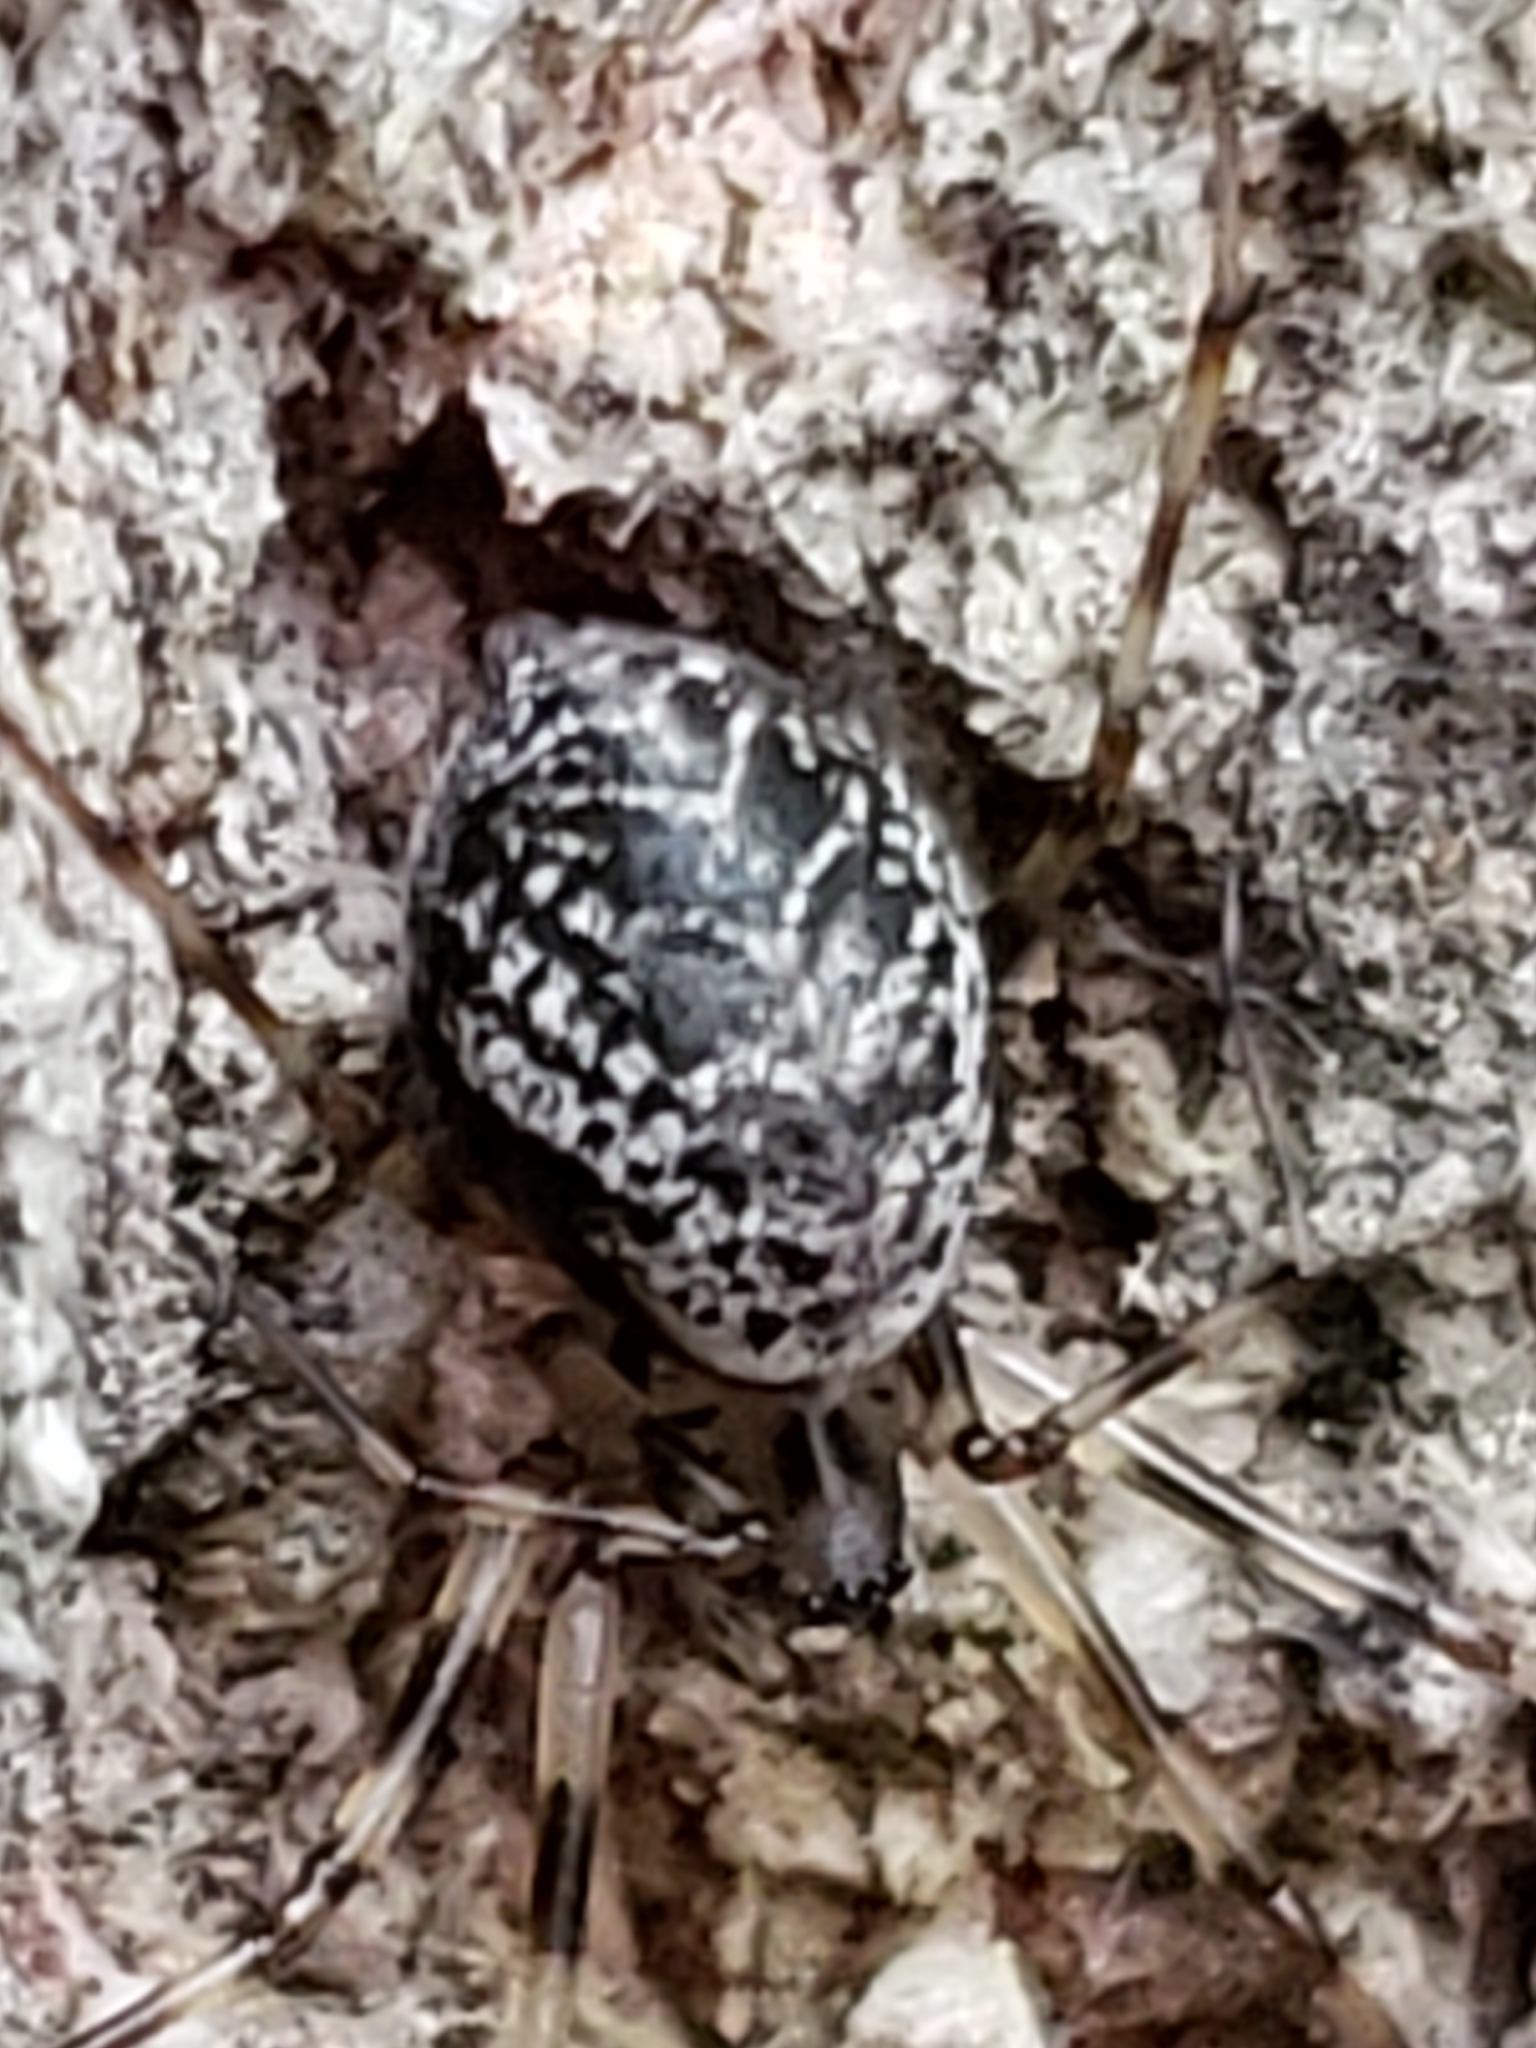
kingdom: Animalia
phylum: Arthropoda
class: Arachnida
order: Araneae
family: Linyphiidae
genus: Drapetisca
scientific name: Drapetisca alteranda
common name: Northern long-toothed sheetweaver
